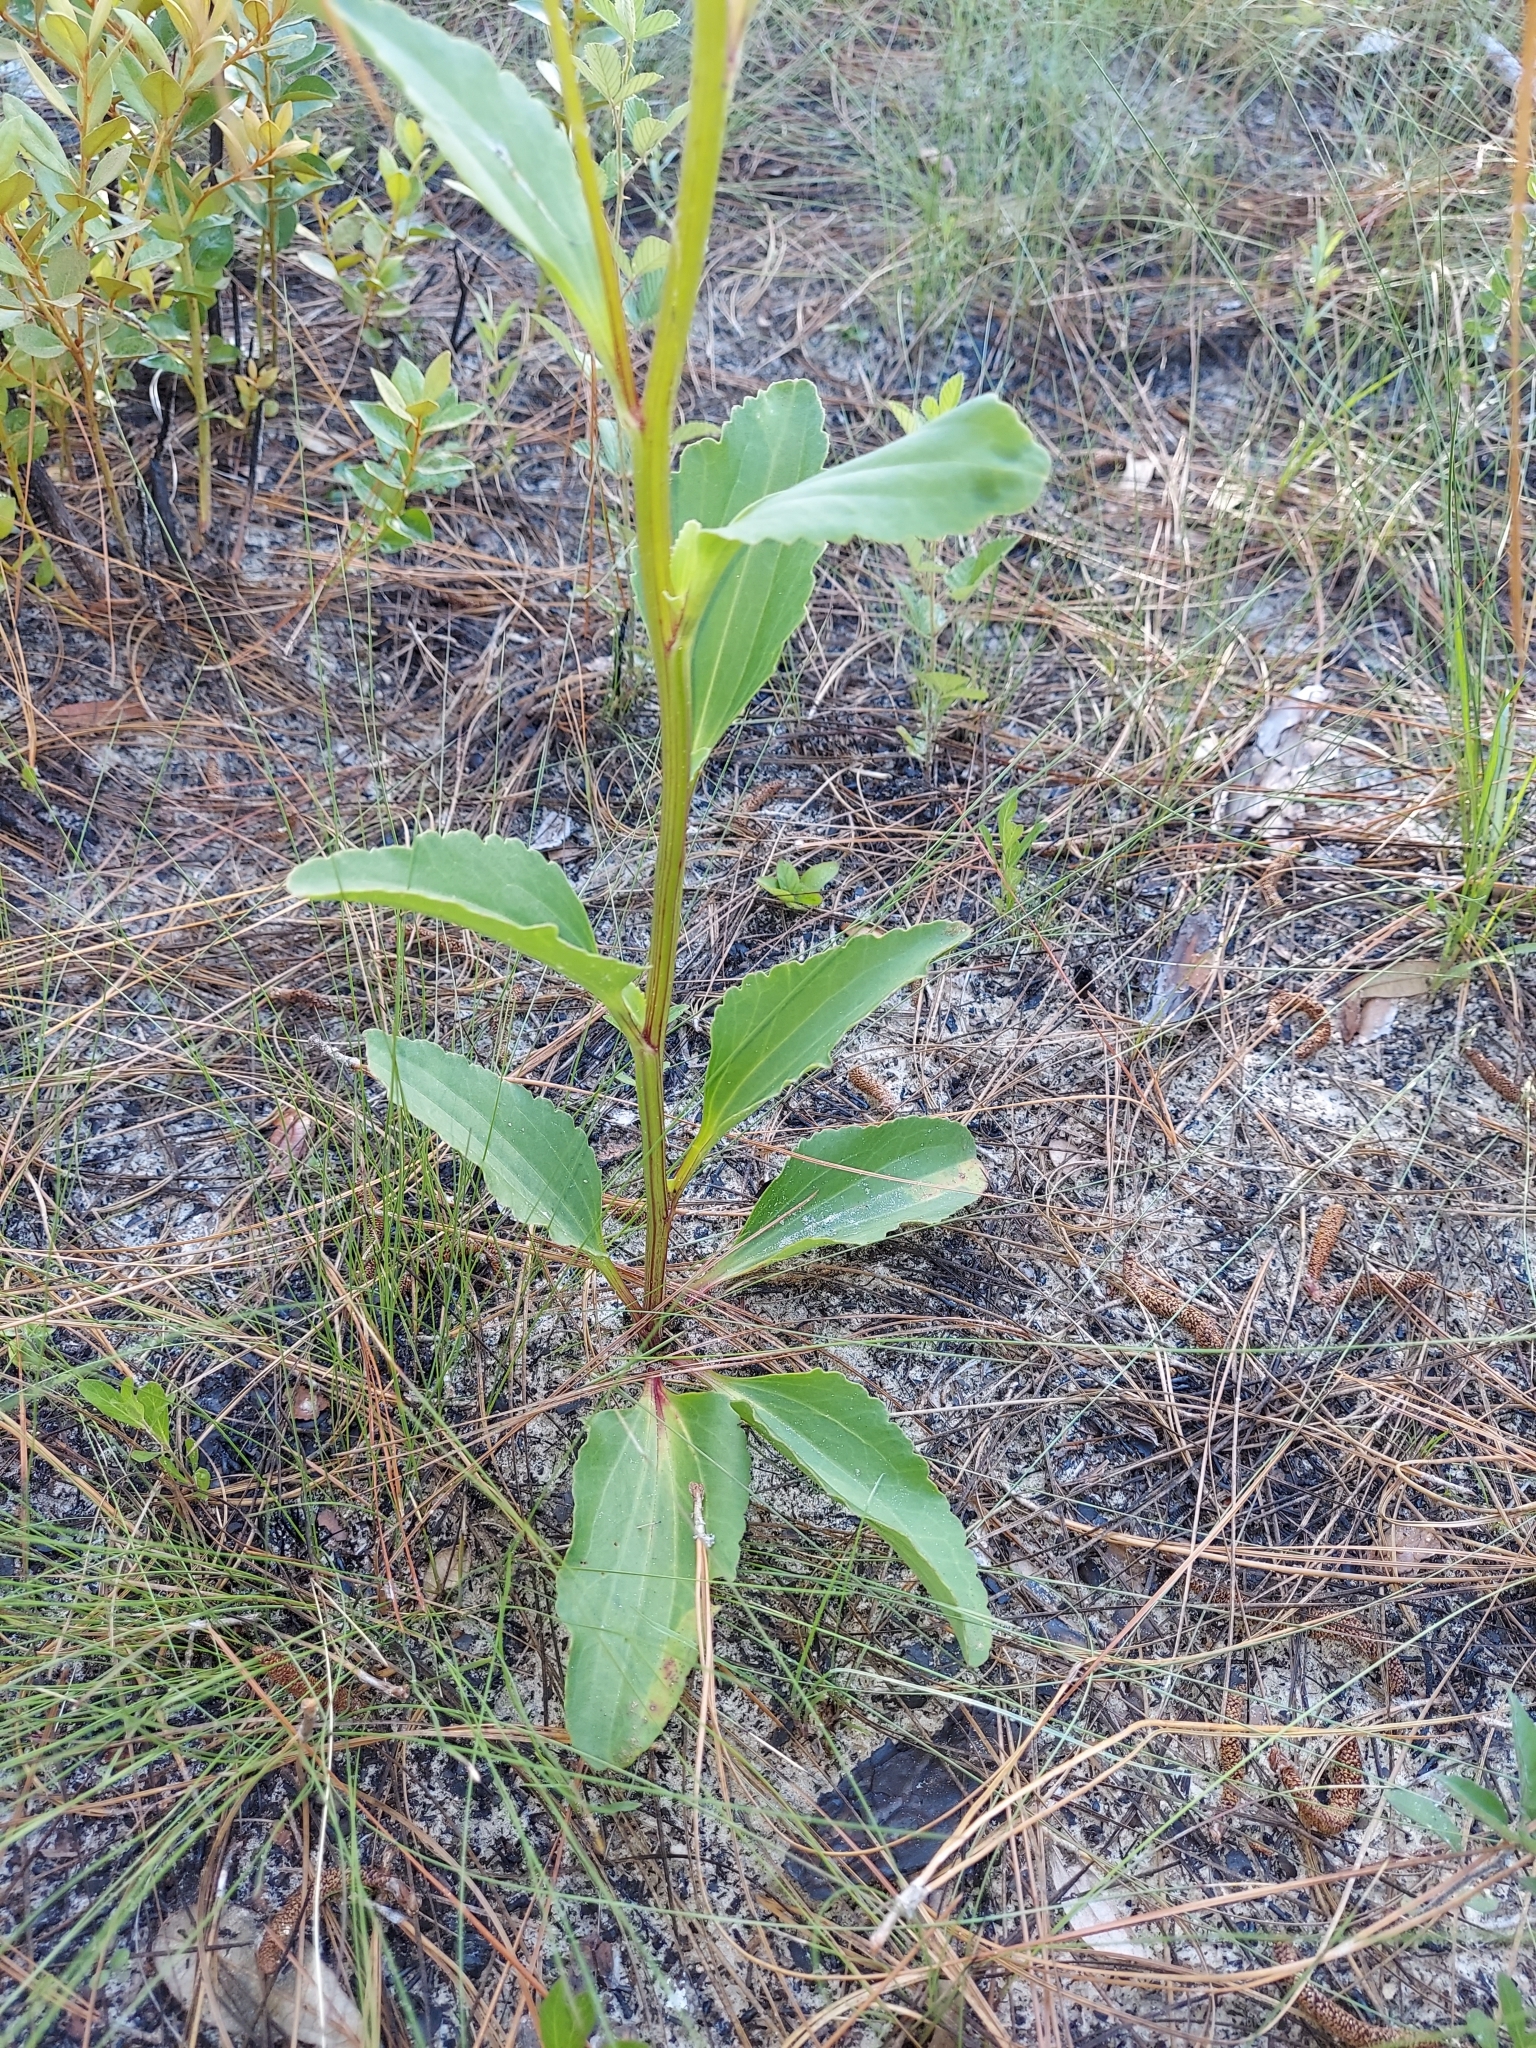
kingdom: Plantae
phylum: Tracheophyta
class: Magnoliopsida
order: Asterales
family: Asteraceae
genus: Arnoglossum
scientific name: Arnoglossum floridanum
